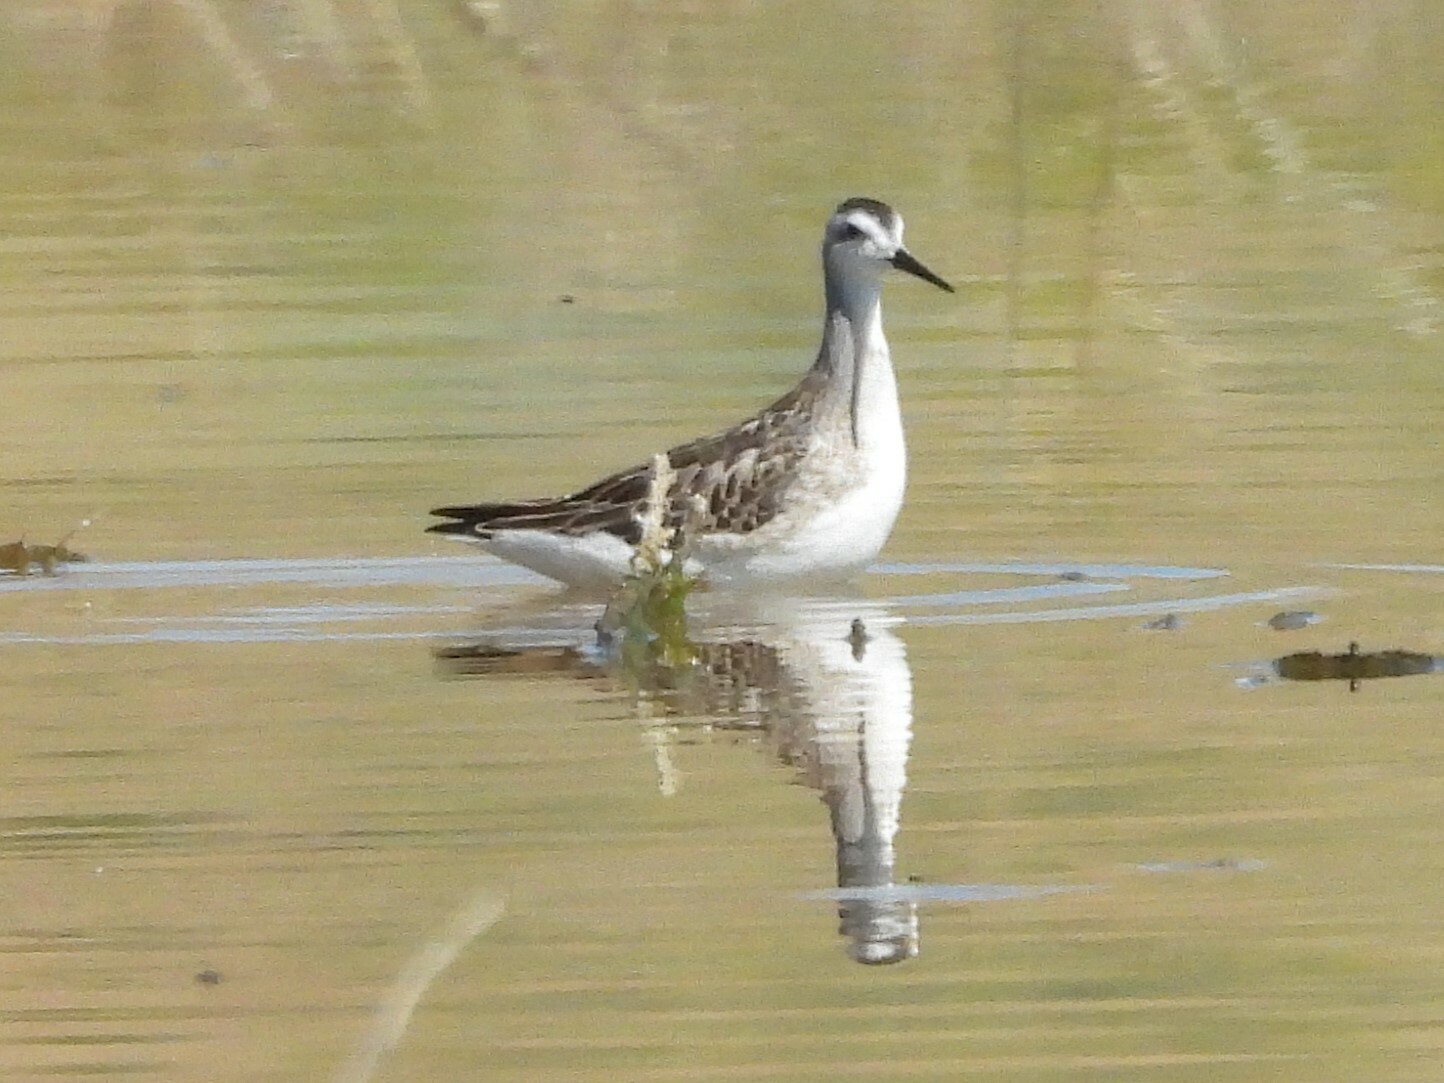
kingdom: Animalia
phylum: Chordata
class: Aves
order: Charadriiformes
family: Scolopacidae
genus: Phalaropus
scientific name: Phalaropus tricolor
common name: Wilson's phalarope
